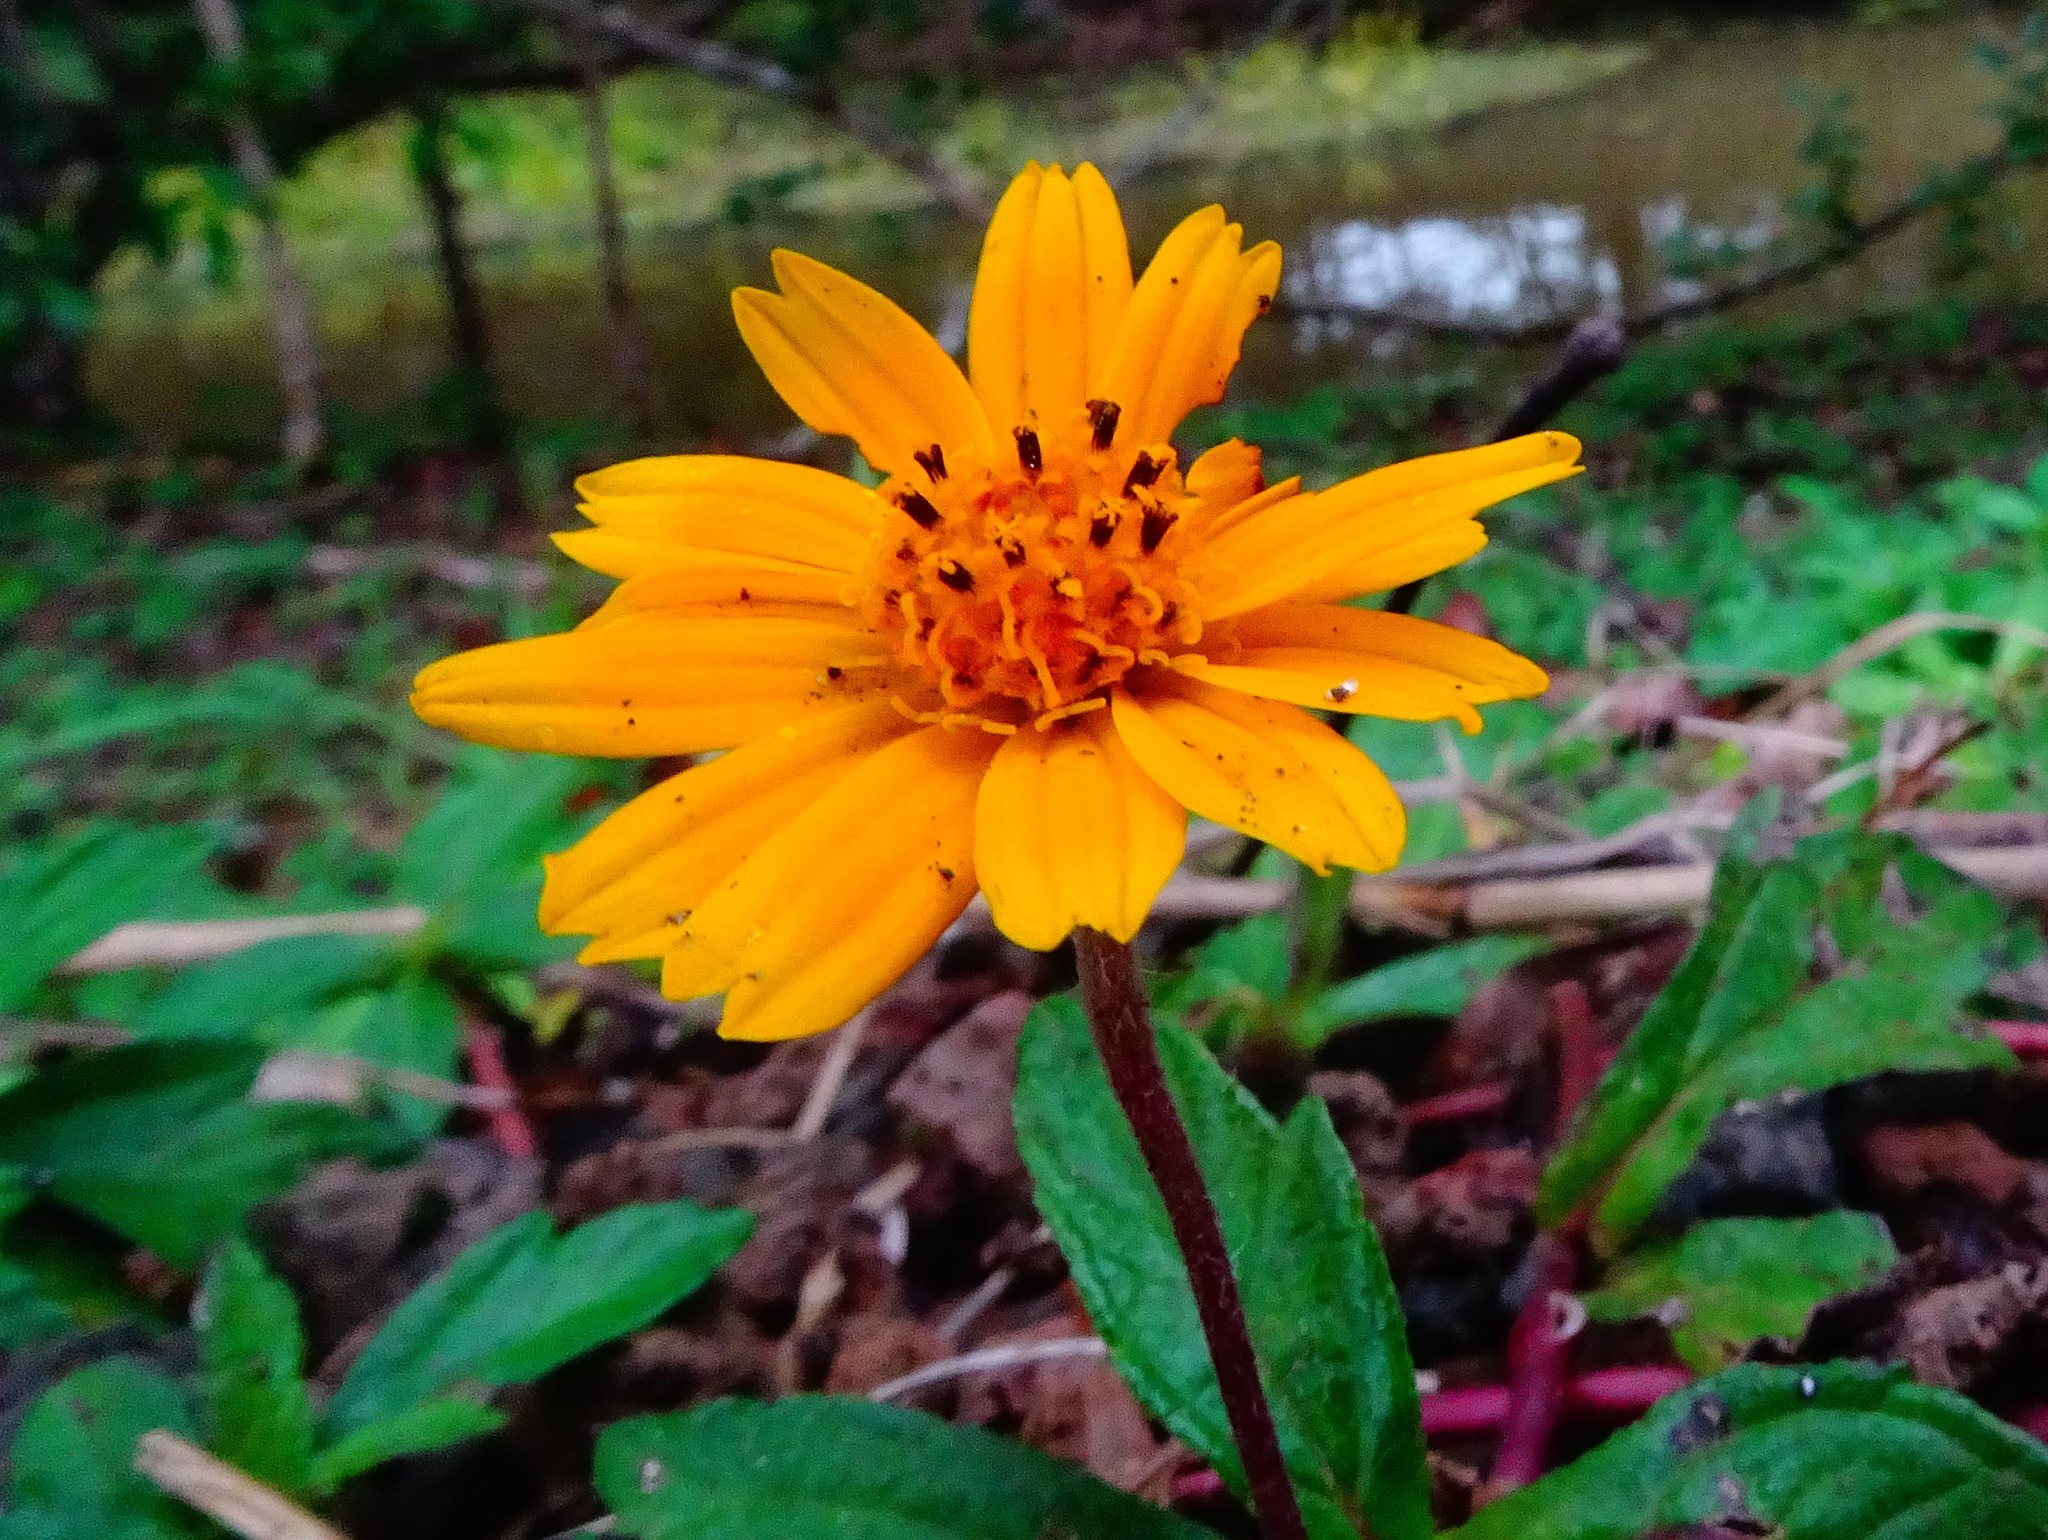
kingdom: Plantae
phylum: Tracheophyta
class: Magnoliopsida
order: Asterales
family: Asteraceae
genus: Sphagneticola
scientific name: Sphagneticola trilobata
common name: Bay biscayne creeping-oxeye
